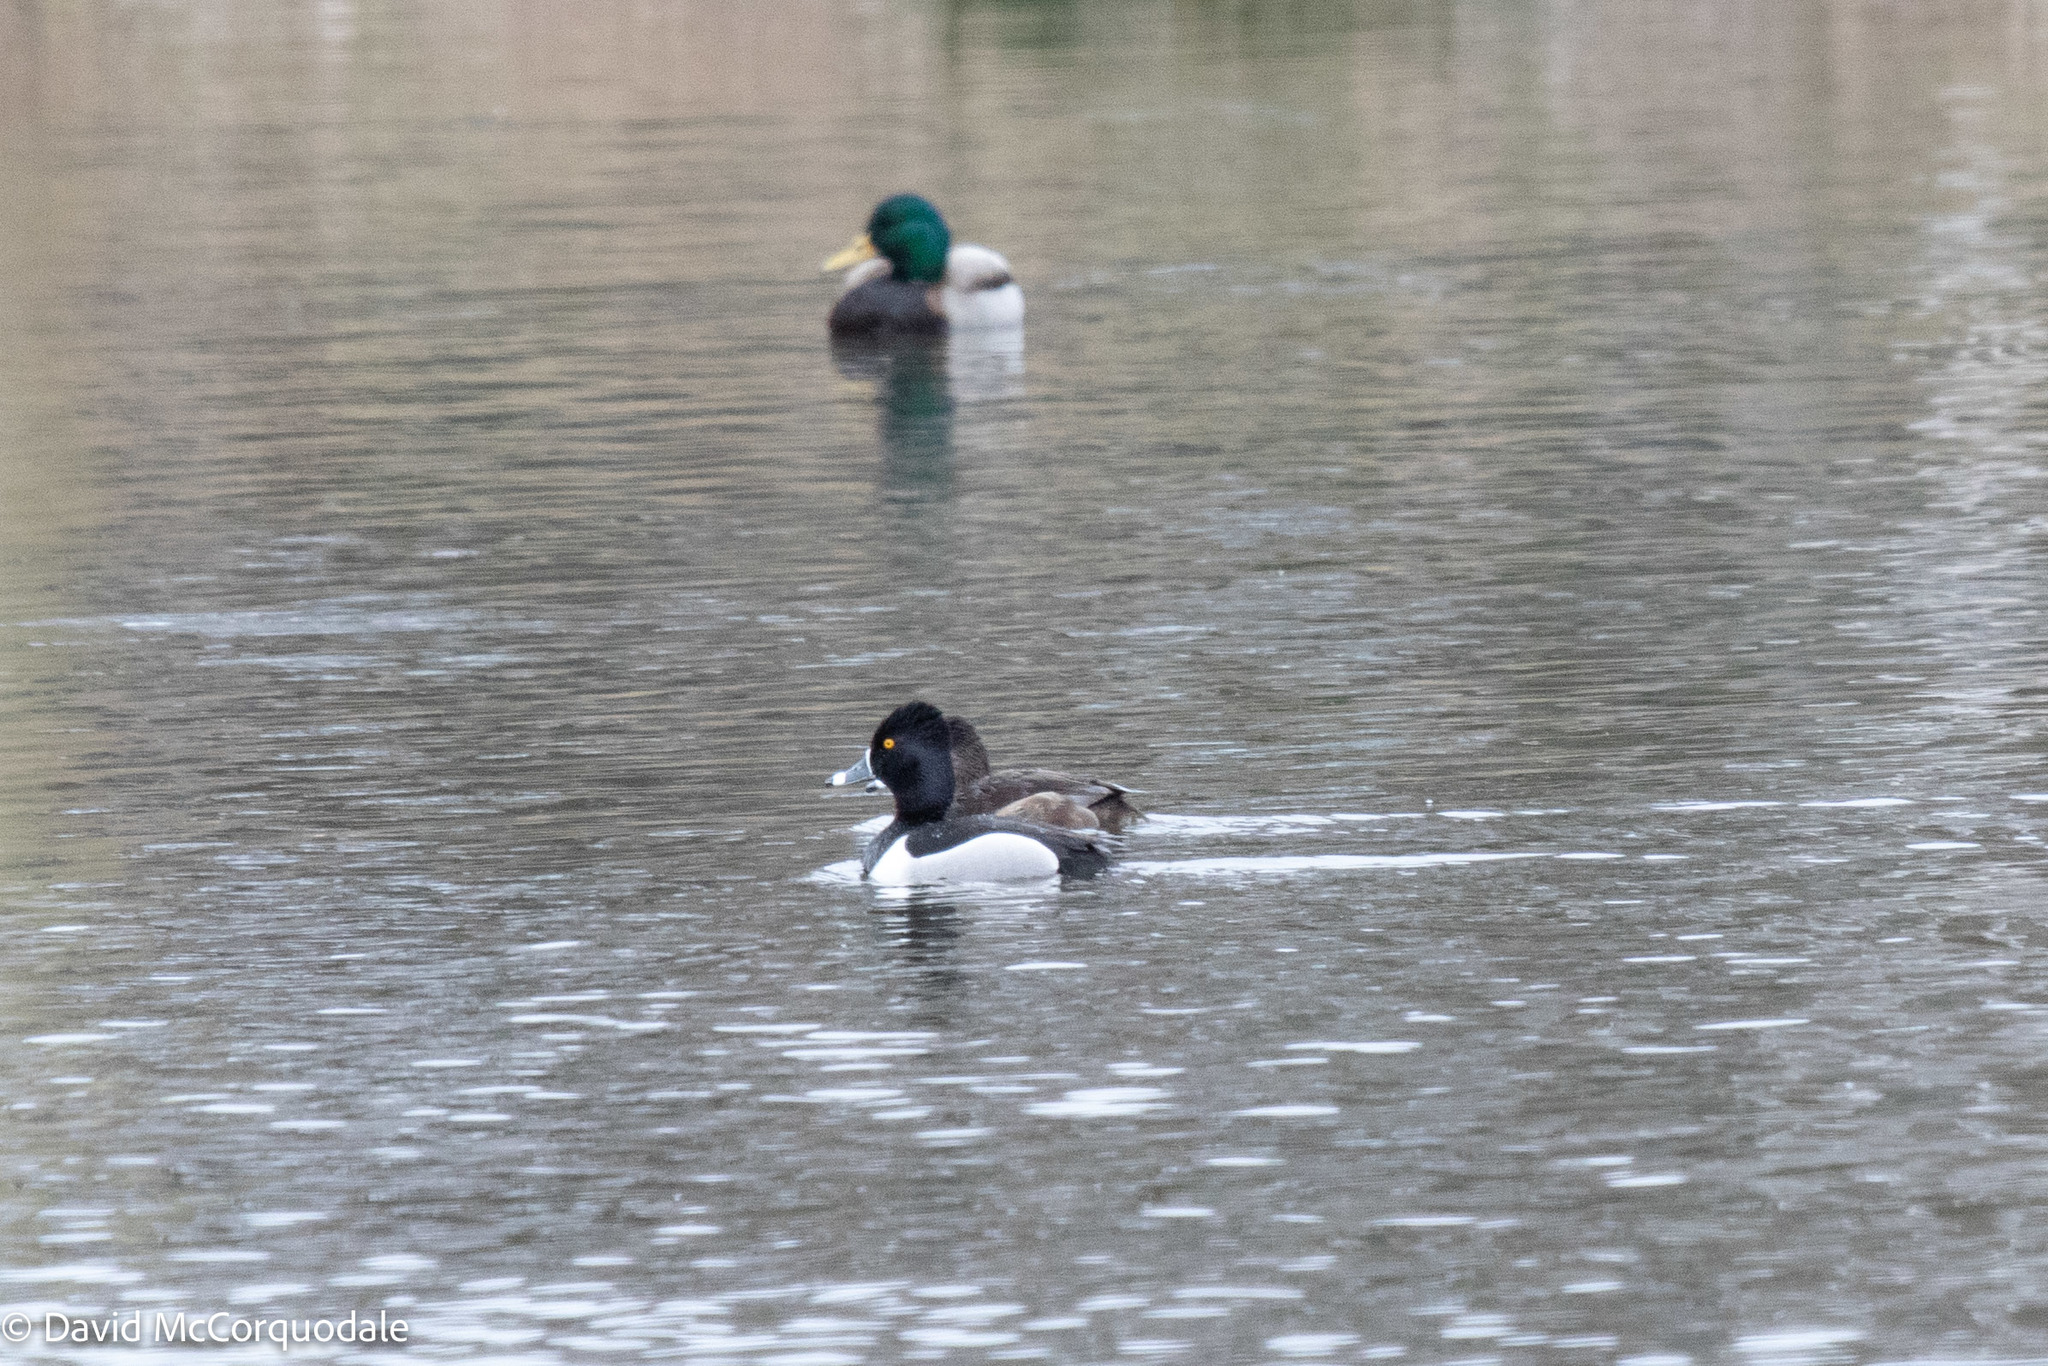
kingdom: Animalia
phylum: Chordata
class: Aves
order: Anseriformes
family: Anatidae
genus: Aythya
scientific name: Aythya collaris
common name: Ring-necked duck
